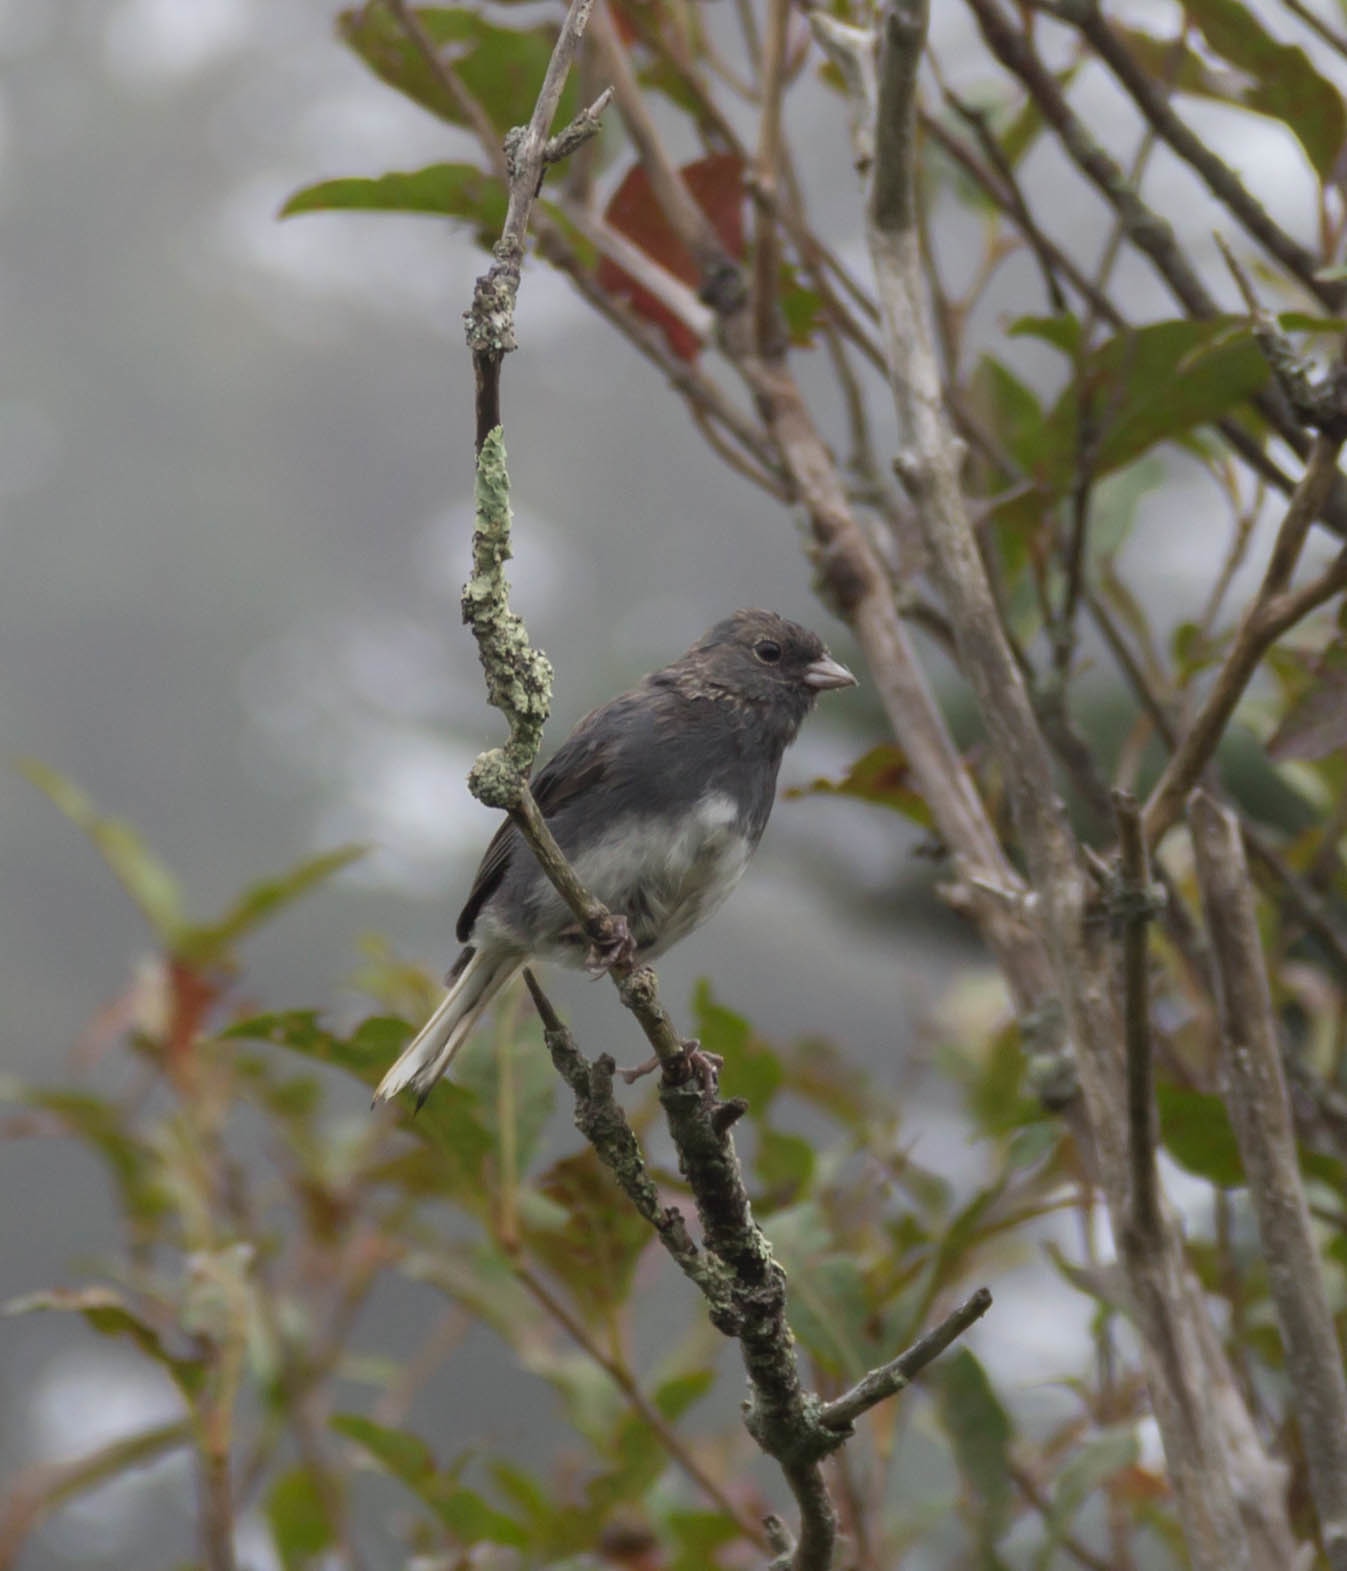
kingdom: Animalia
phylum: Chordata
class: Aves
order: Passeriformes
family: Passerellidae
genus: Junco
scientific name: Junco hyemalis
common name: Dark-eyed junco
